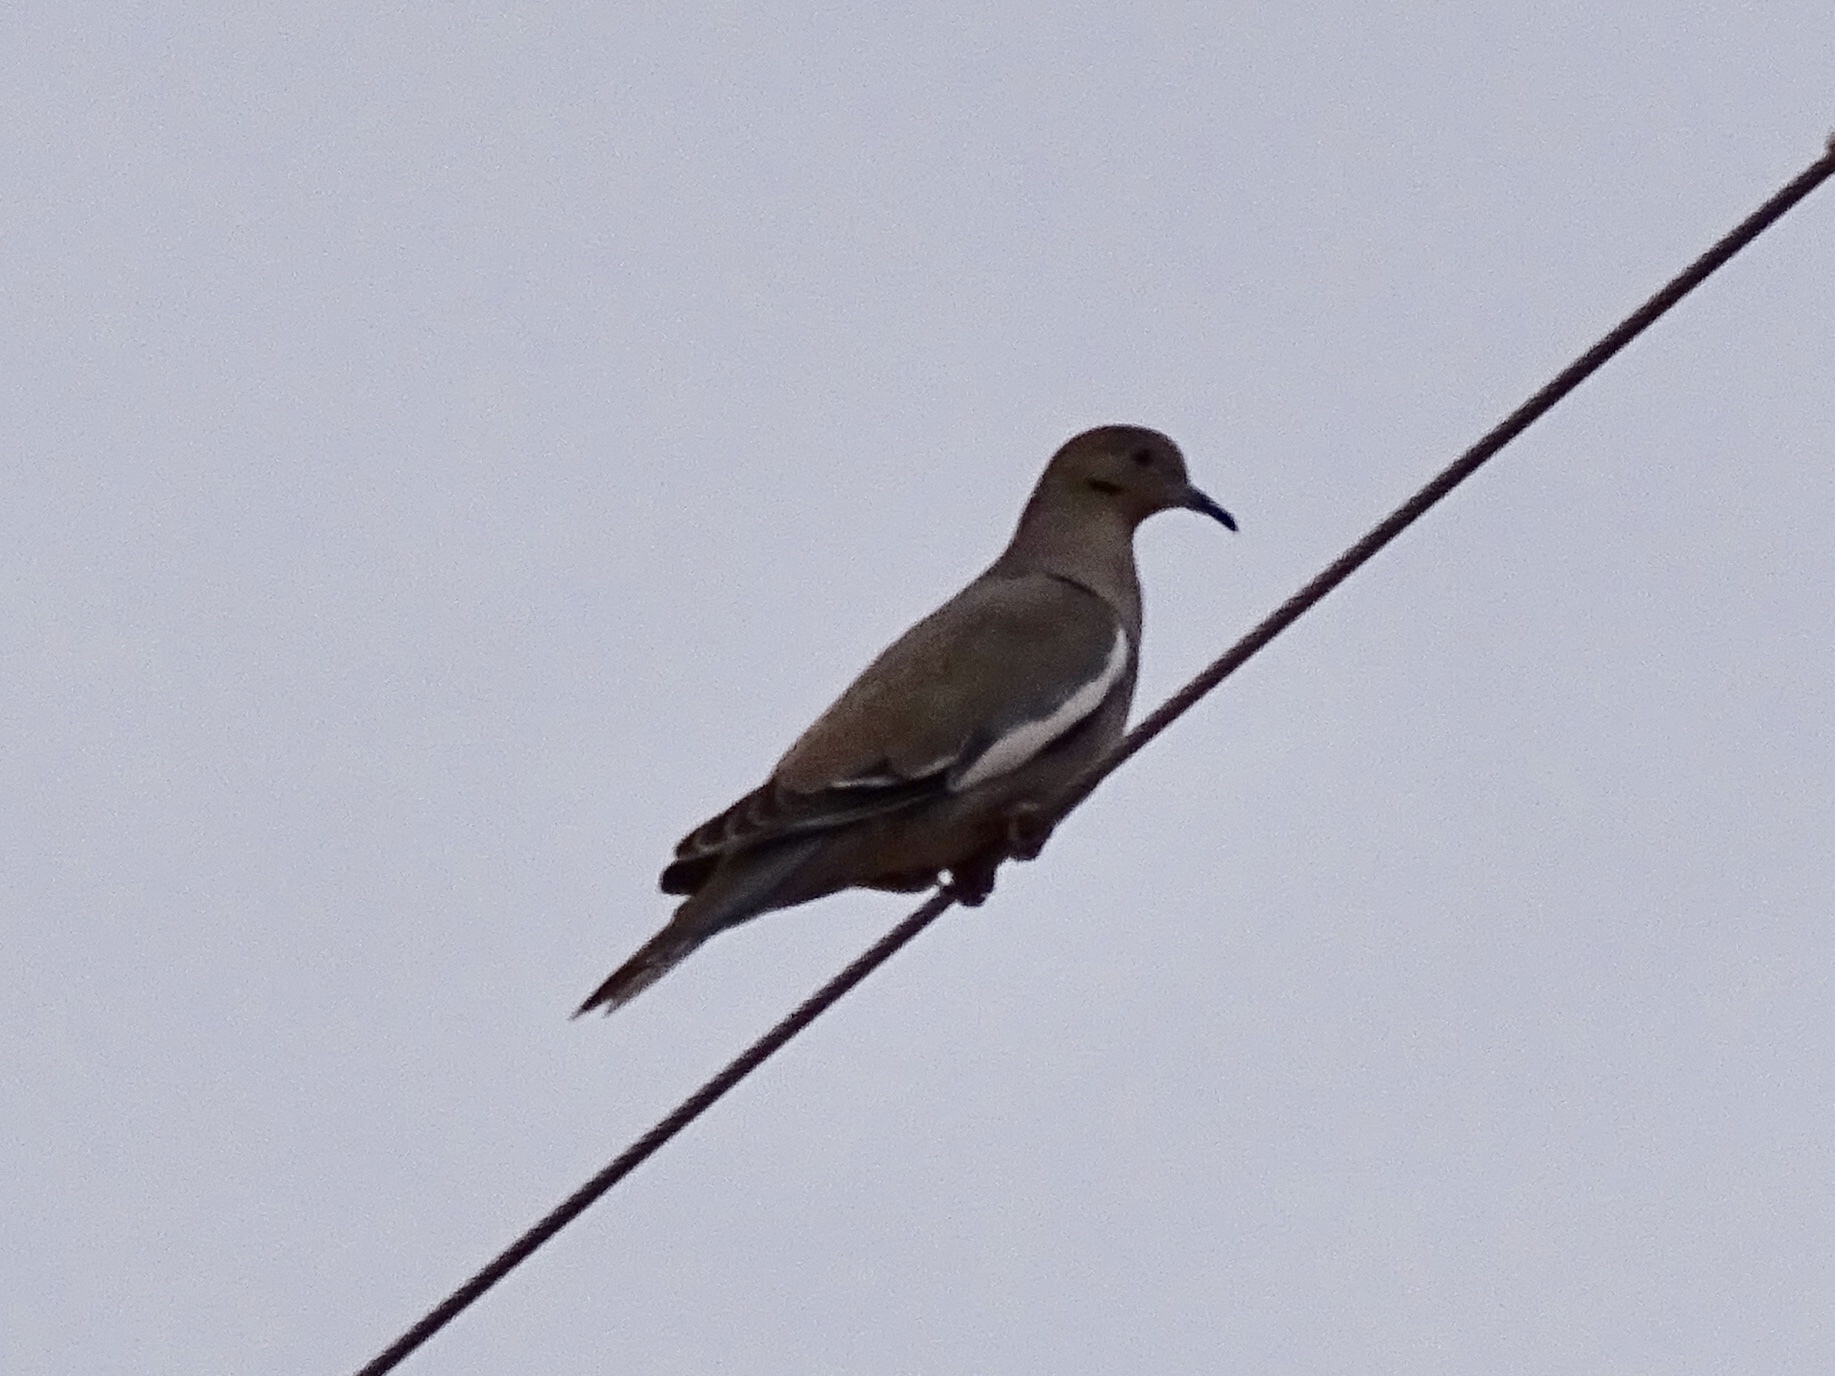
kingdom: Animalia
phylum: Chordata
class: Aves
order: Columbiformes
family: Columbidae
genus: Zenaida
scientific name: Zenaida asiatica
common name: White-winged dove
